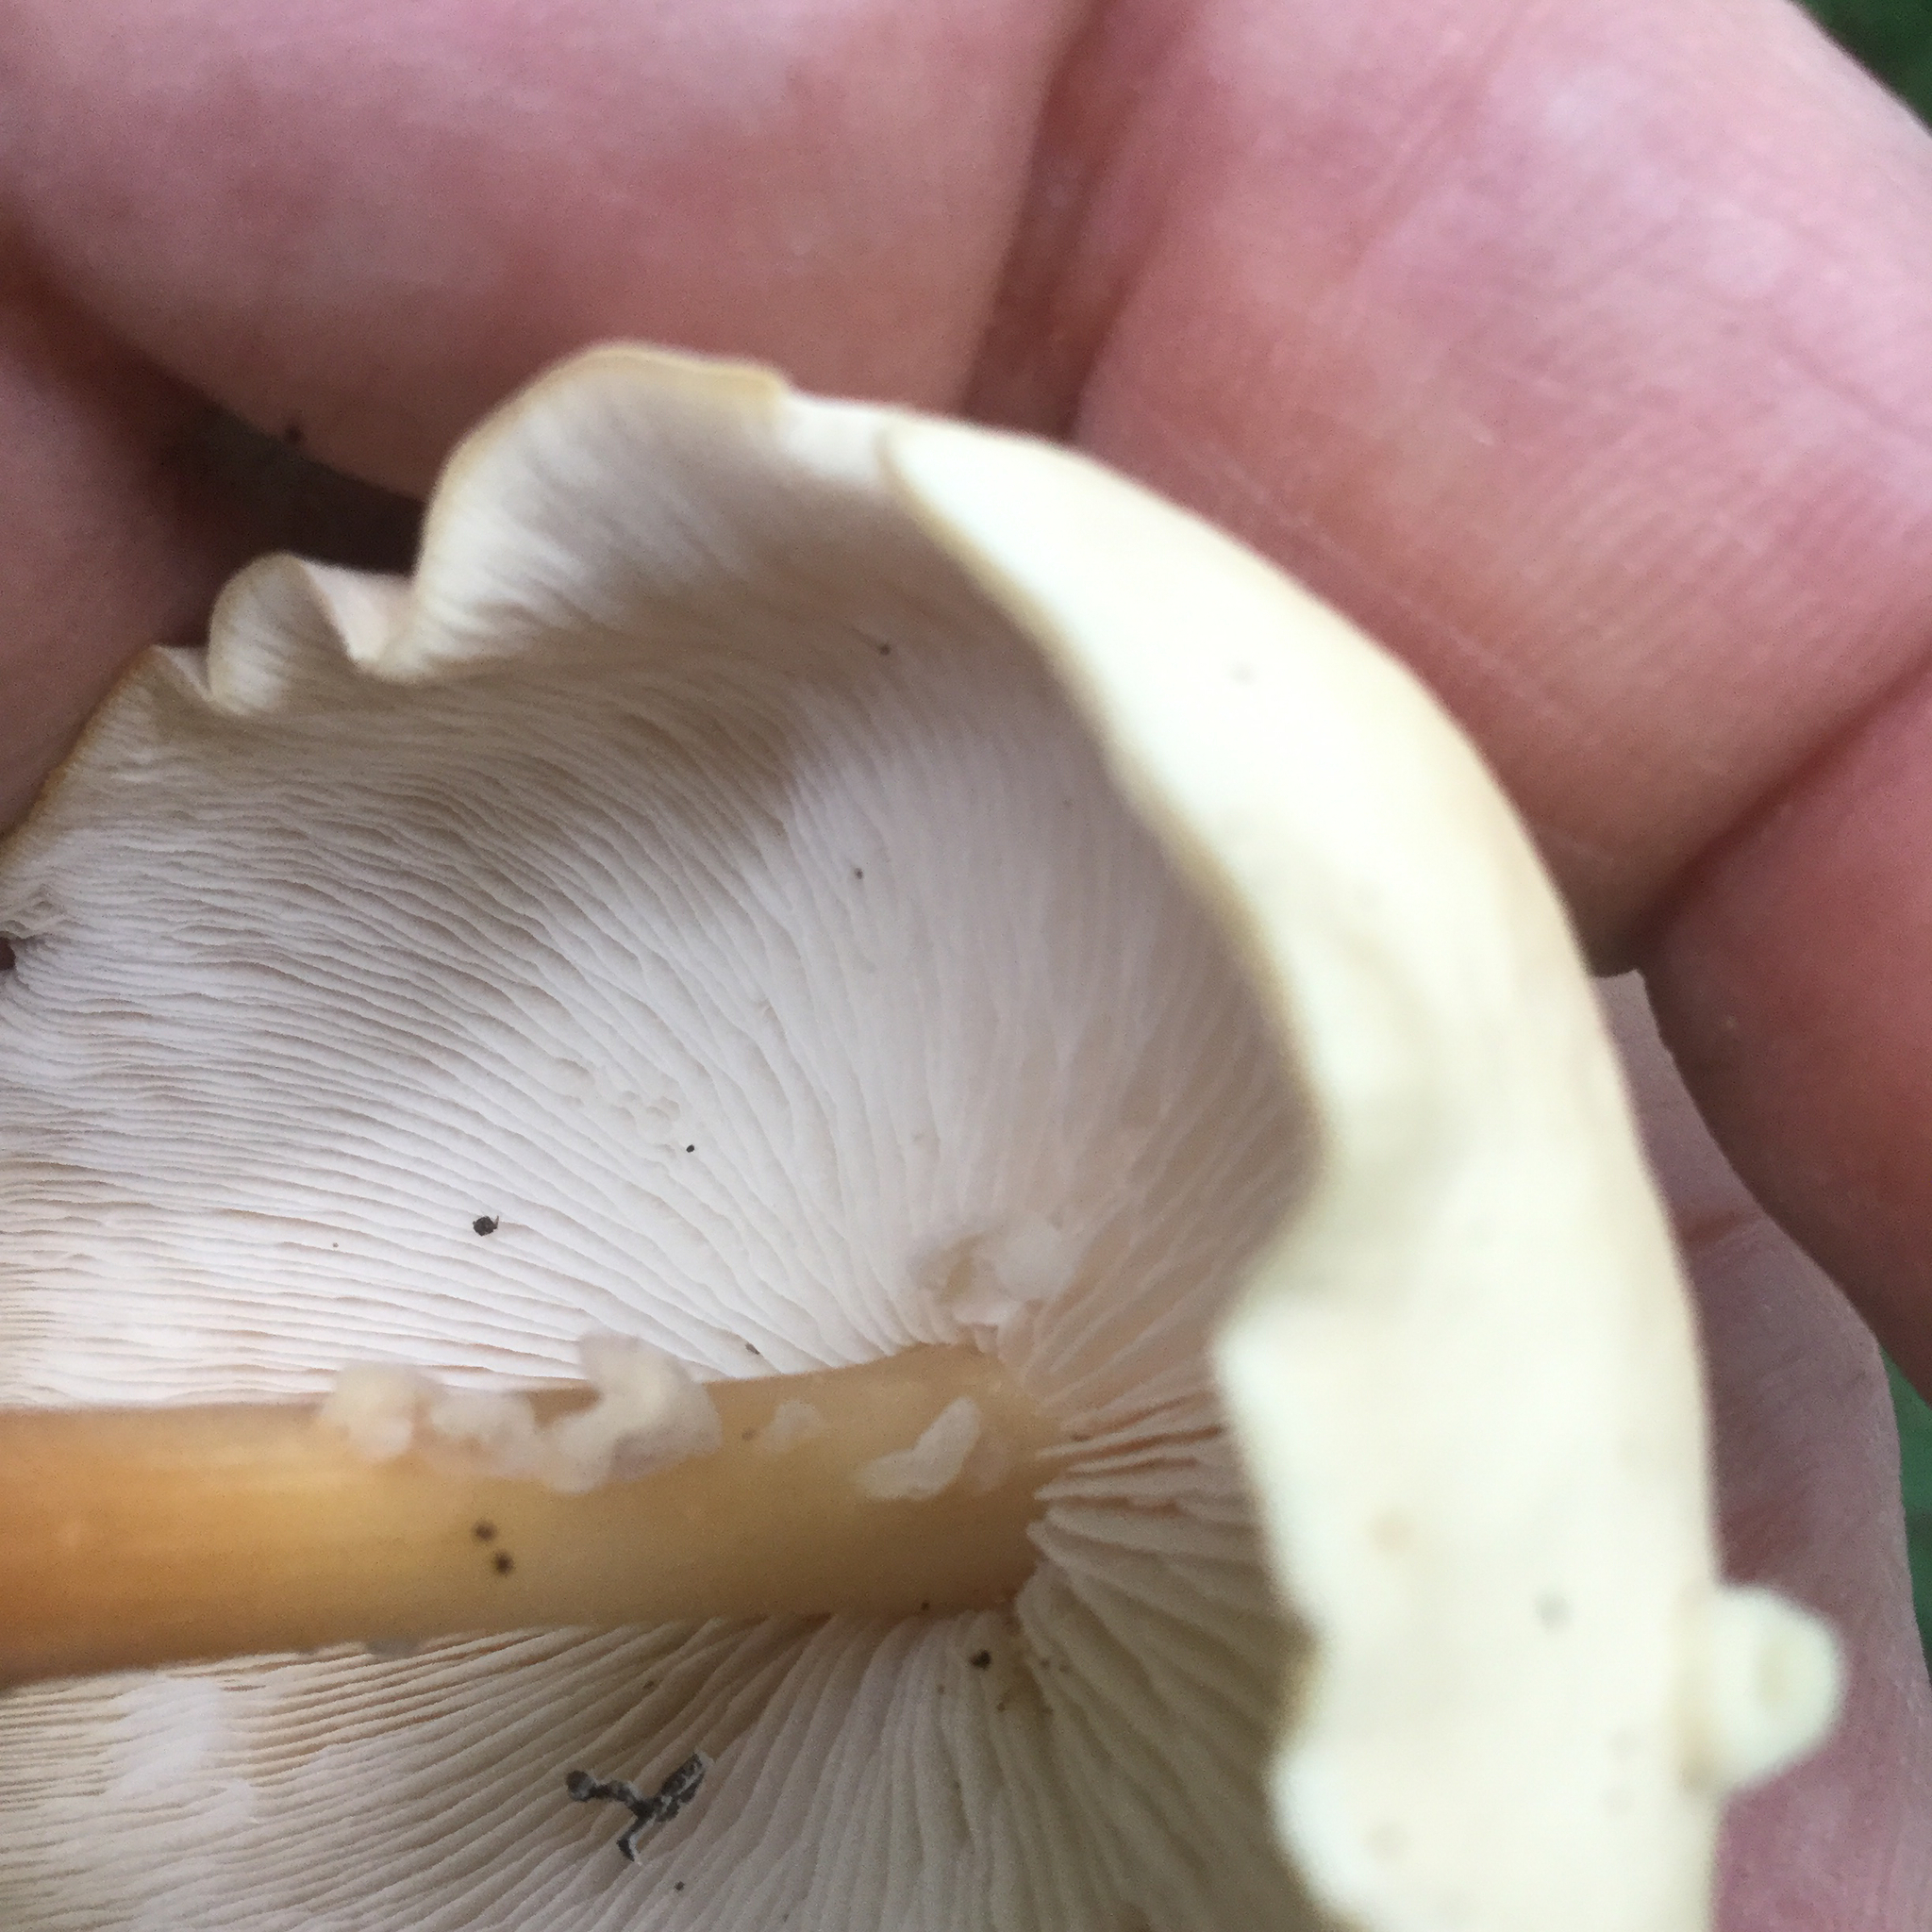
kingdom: Fungi
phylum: Basidiomycota
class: Tremellomycetes
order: Filobasidiales
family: Filobasidiaceae
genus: Syzygospora
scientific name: Syzygospora mycetophila
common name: Collybia clouds
